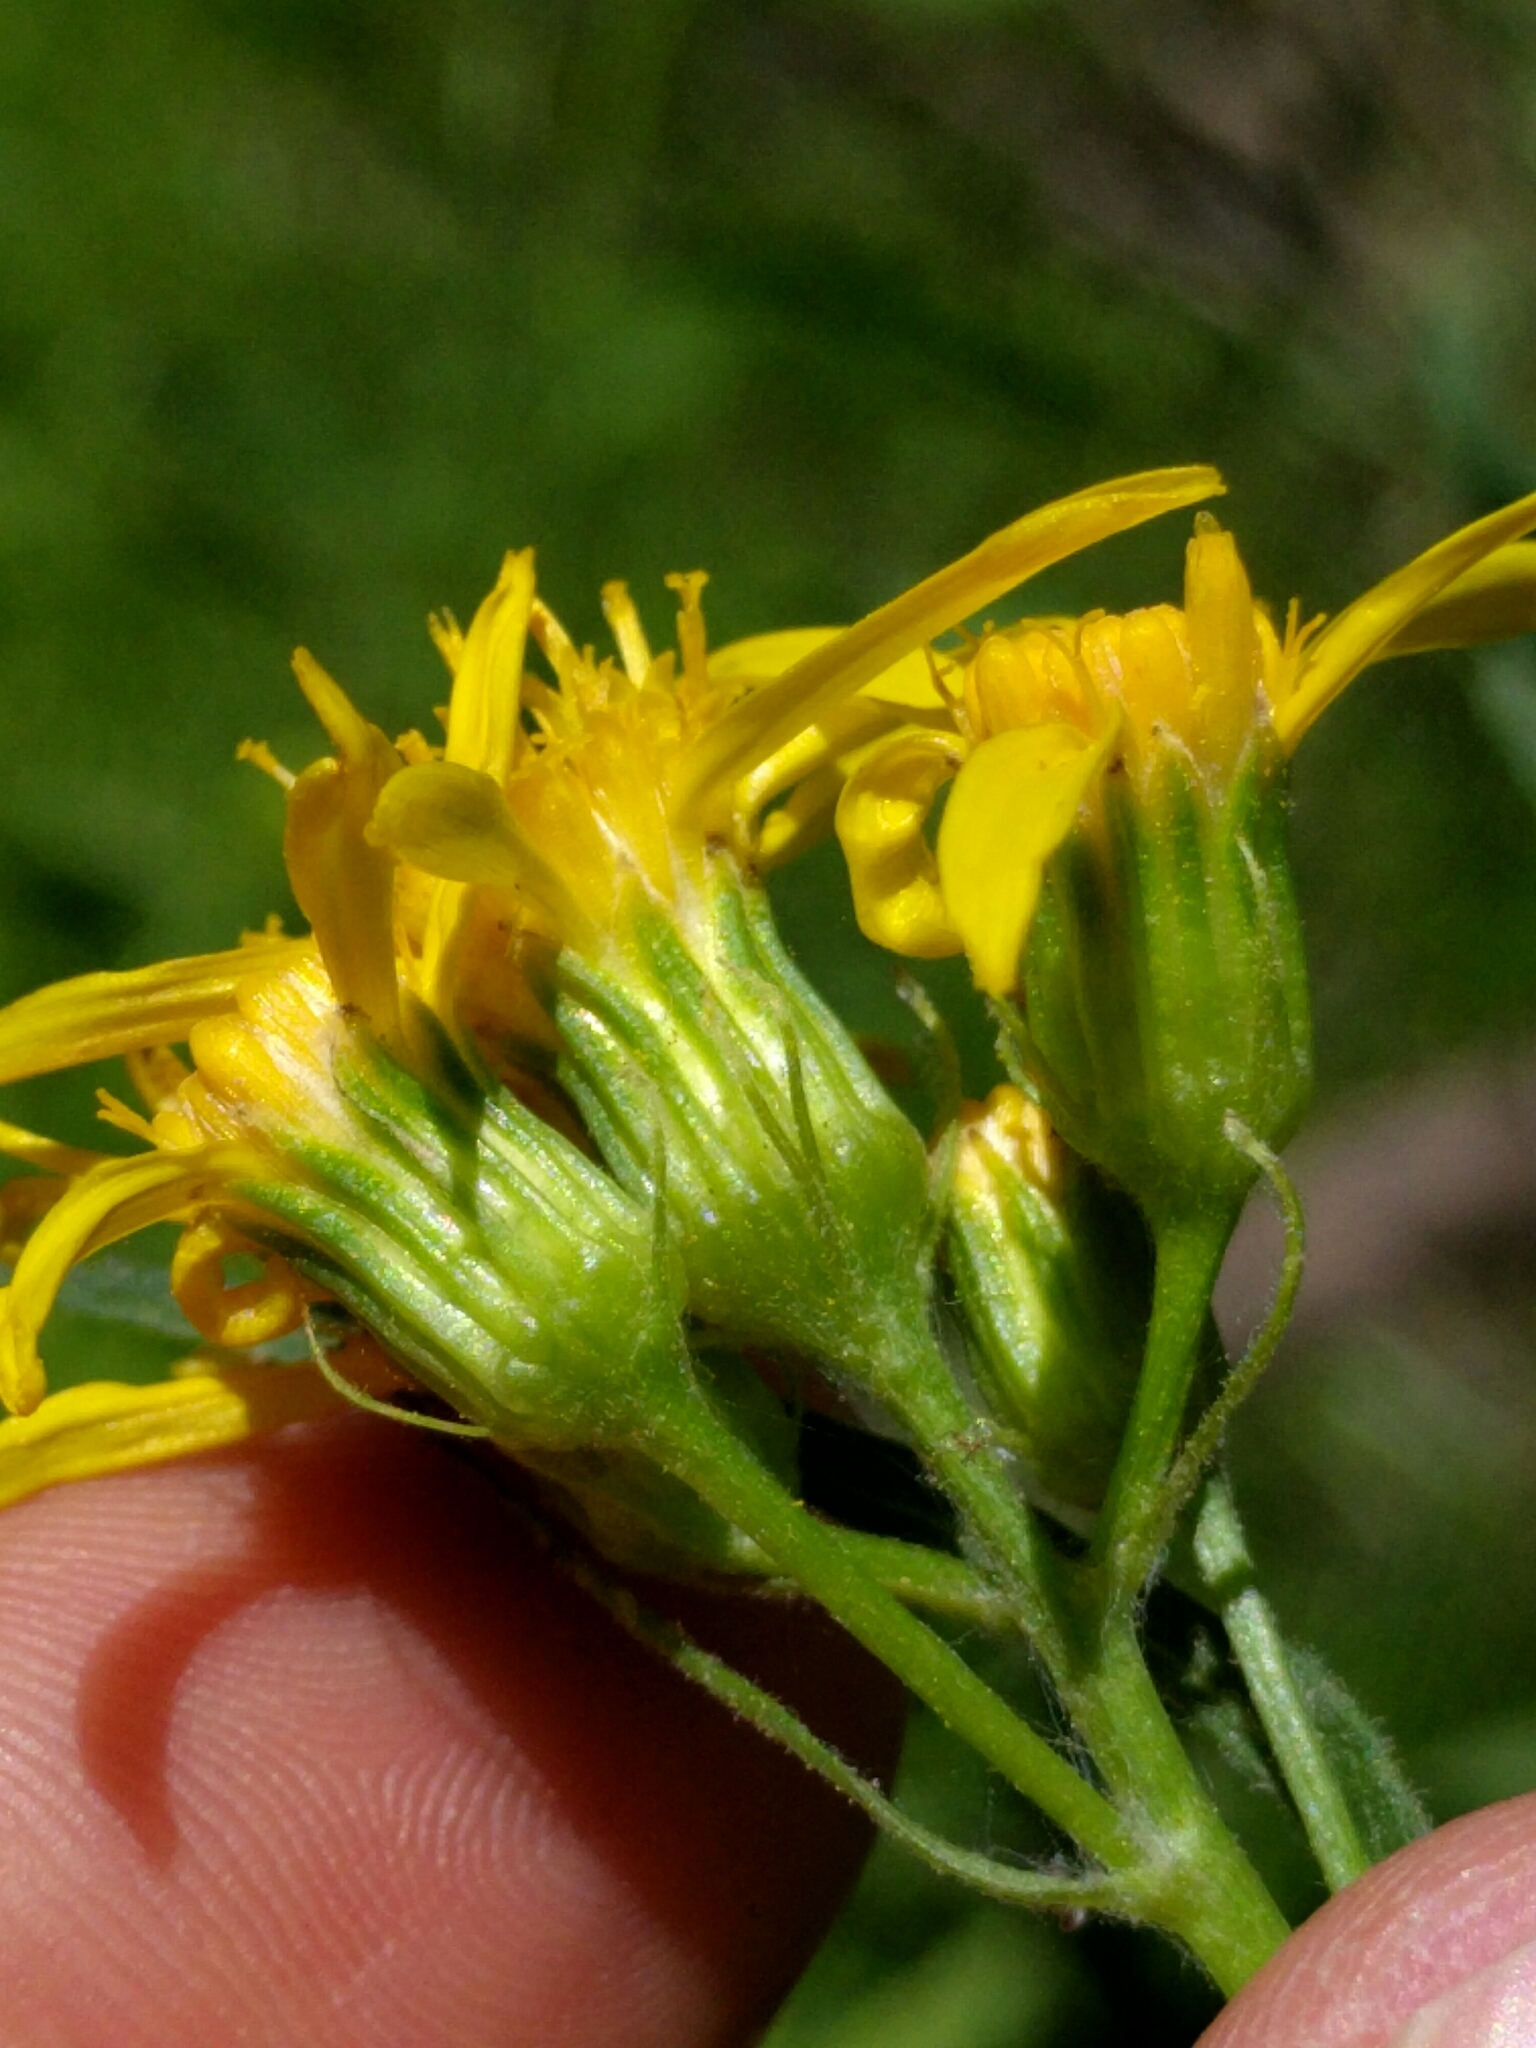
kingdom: Plantae
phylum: Tracheophyta
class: Magnoliopsida
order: Asterales
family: Asteraceae
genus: Senecio
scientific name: Senecio triangularis
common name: Arrowleaf butterweed
